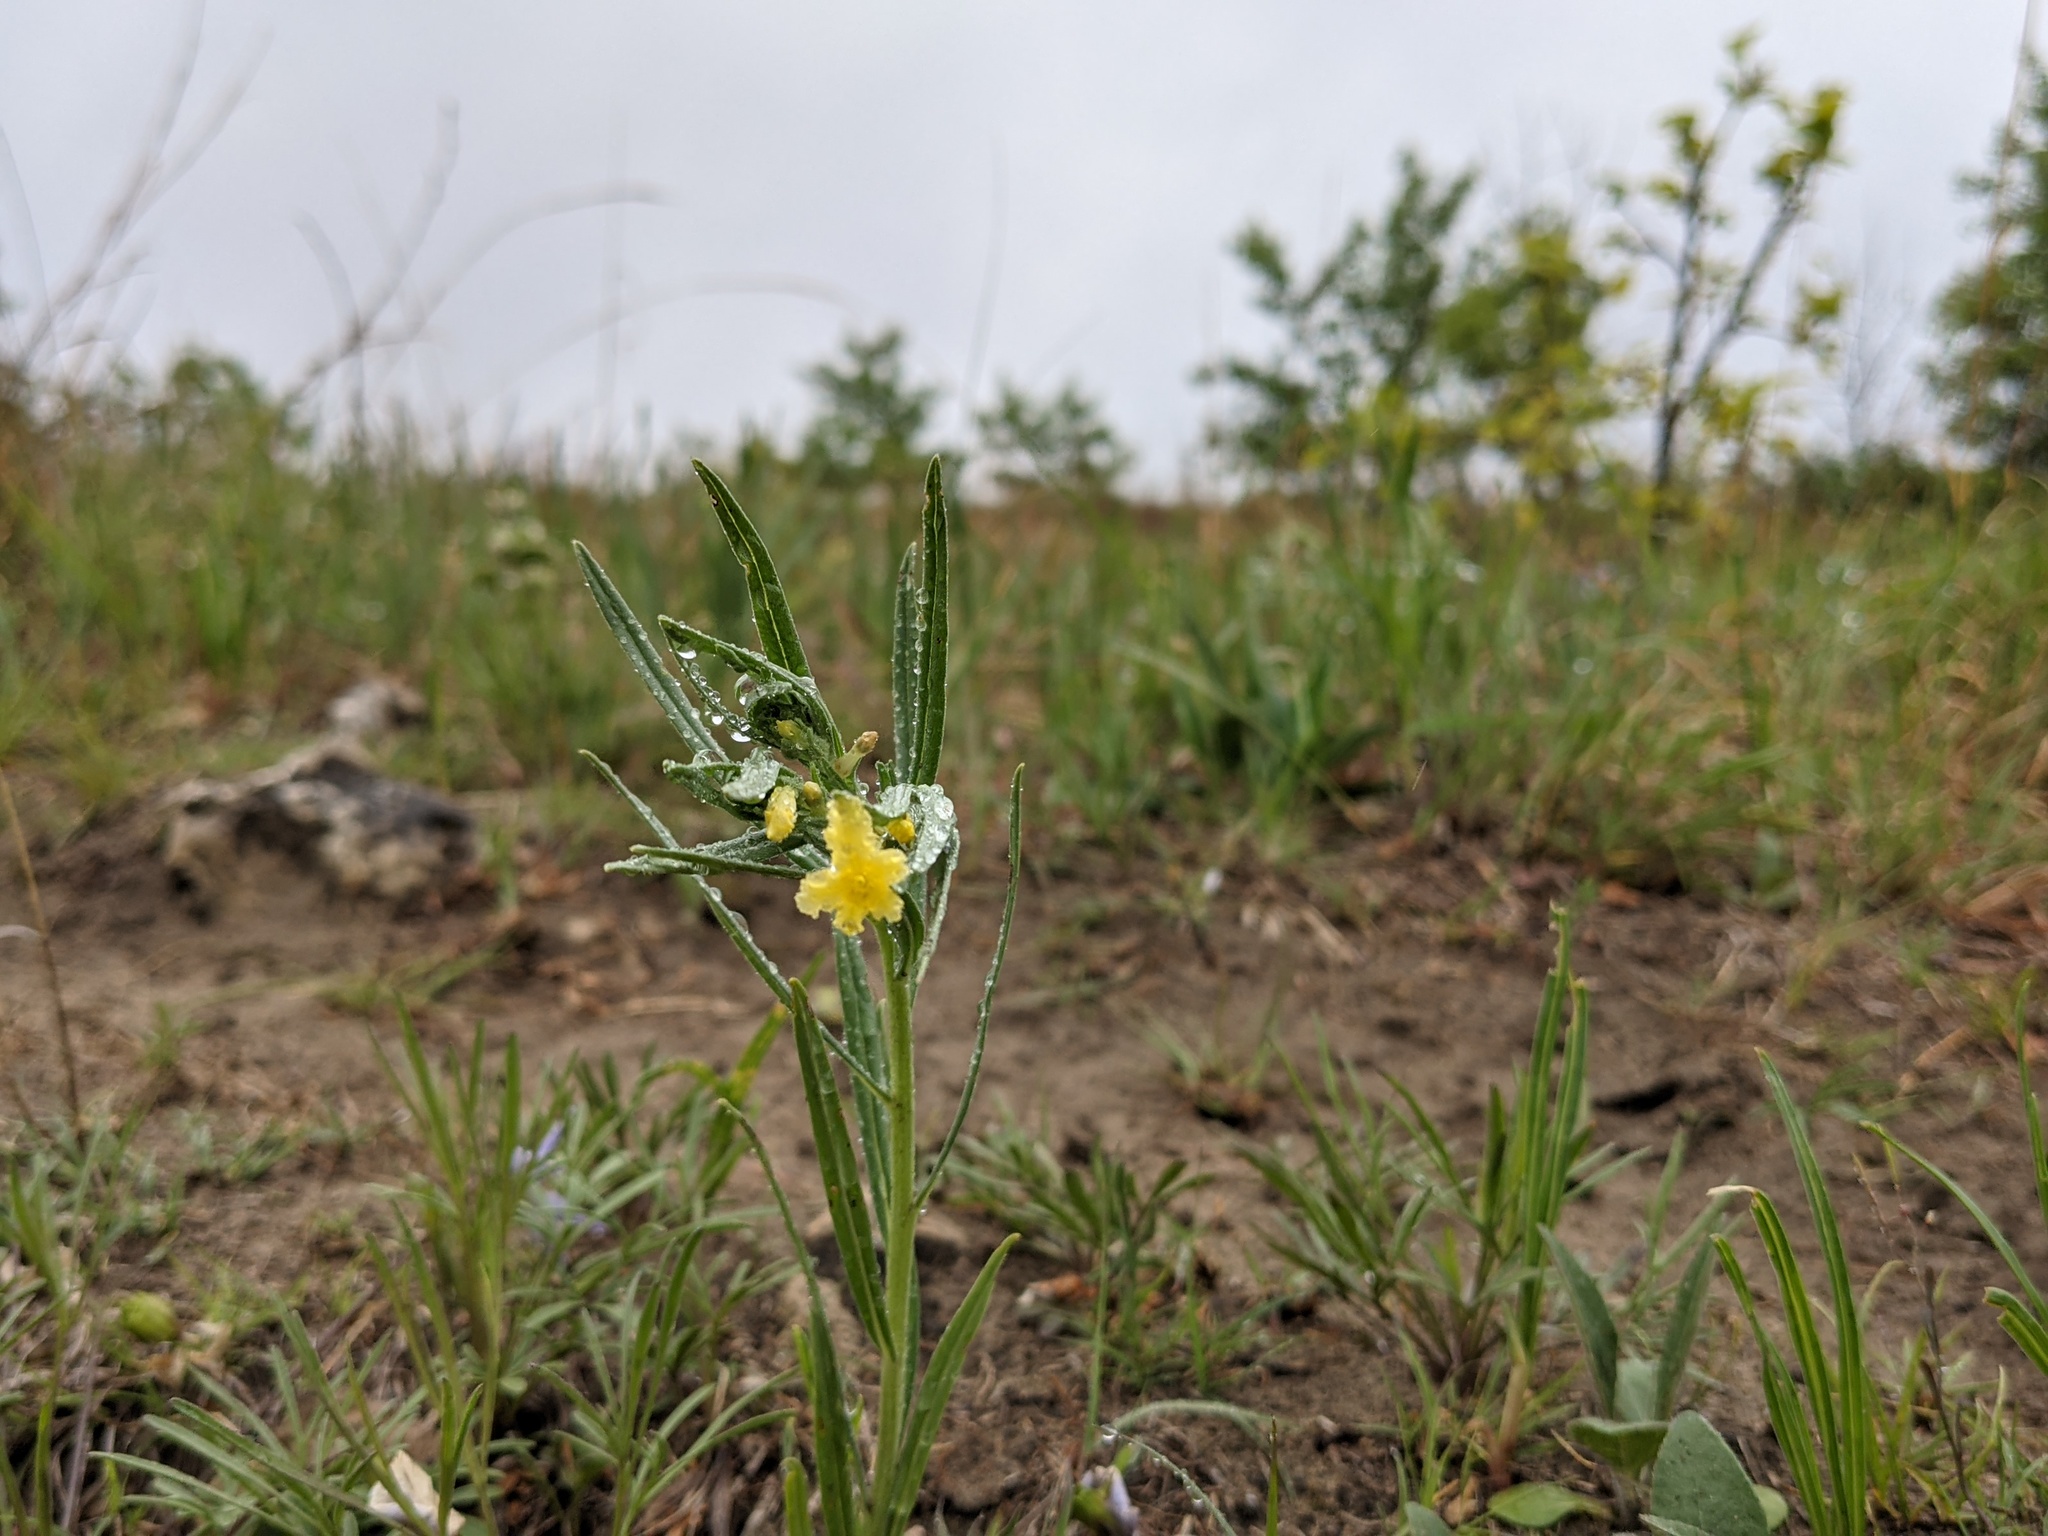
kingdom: Plantae
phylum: Tracheophyta
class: Magnoliopsida
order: Boraginales
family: Boraginaceae
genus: Lithospermum
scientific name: Lithospermum incisum
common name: Fringed gromwell
